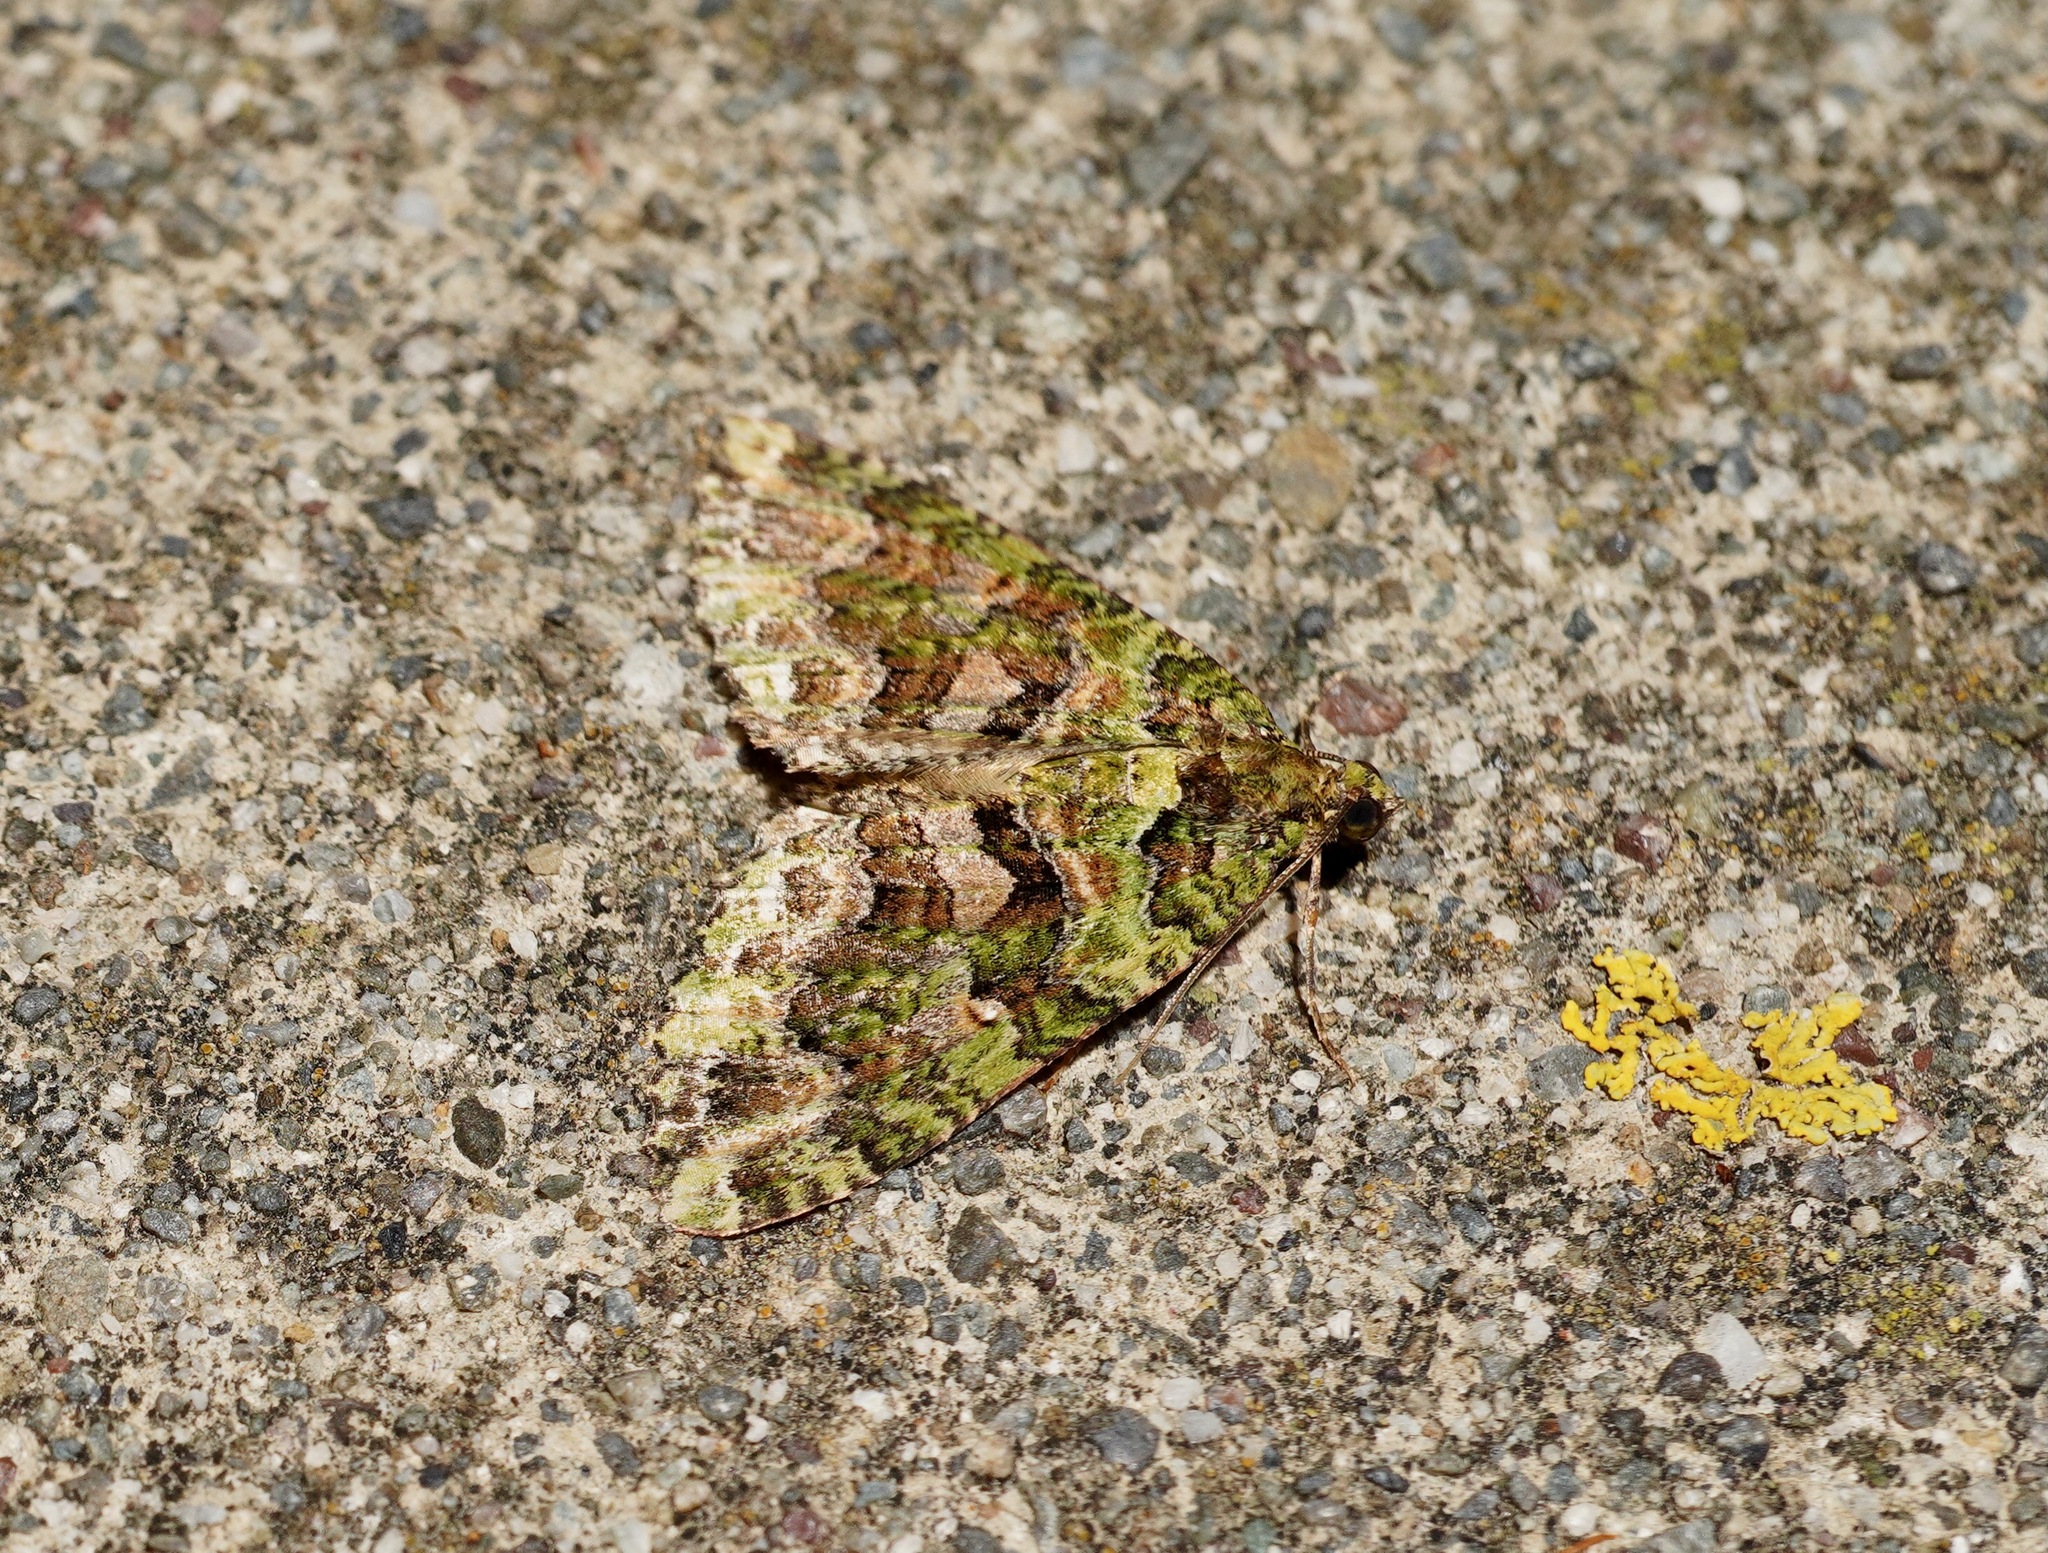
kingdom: Animalia
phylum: Arthropoda
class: Insecta
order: Lepidoptera
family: Geometridae
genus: Austrocidaria
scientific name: Austrocidaria similata
